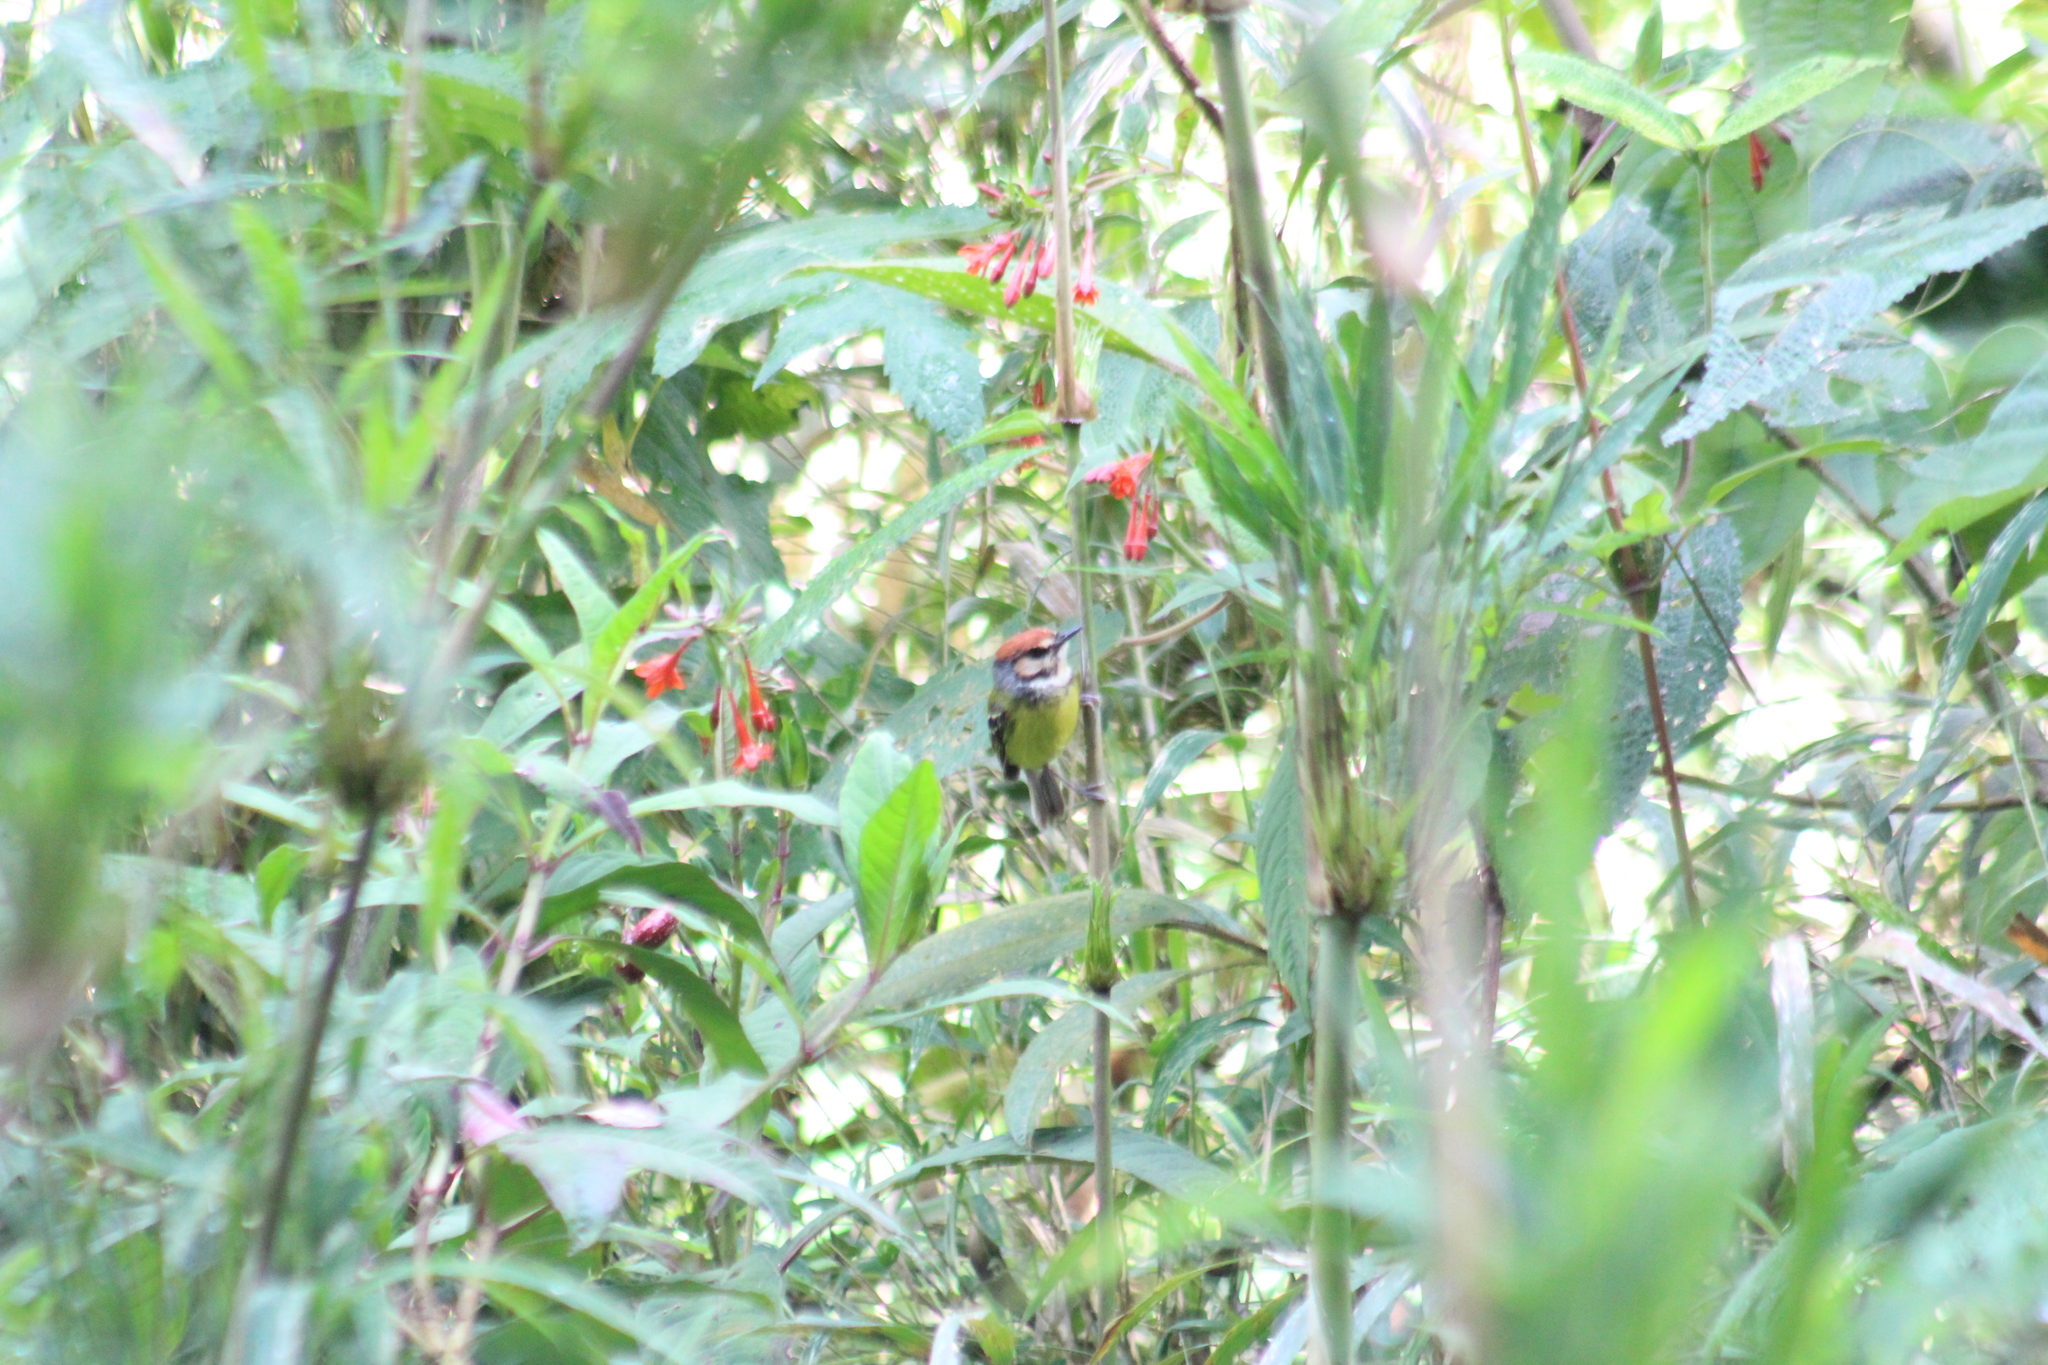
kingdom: Animalia
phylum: Chordata
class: Aves
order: Passeriformes
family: Tyrannidae
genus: Poecilotriccus
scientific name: Poecilotriccus ruficeps
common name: Rufous-crowned tody-flycatcher
